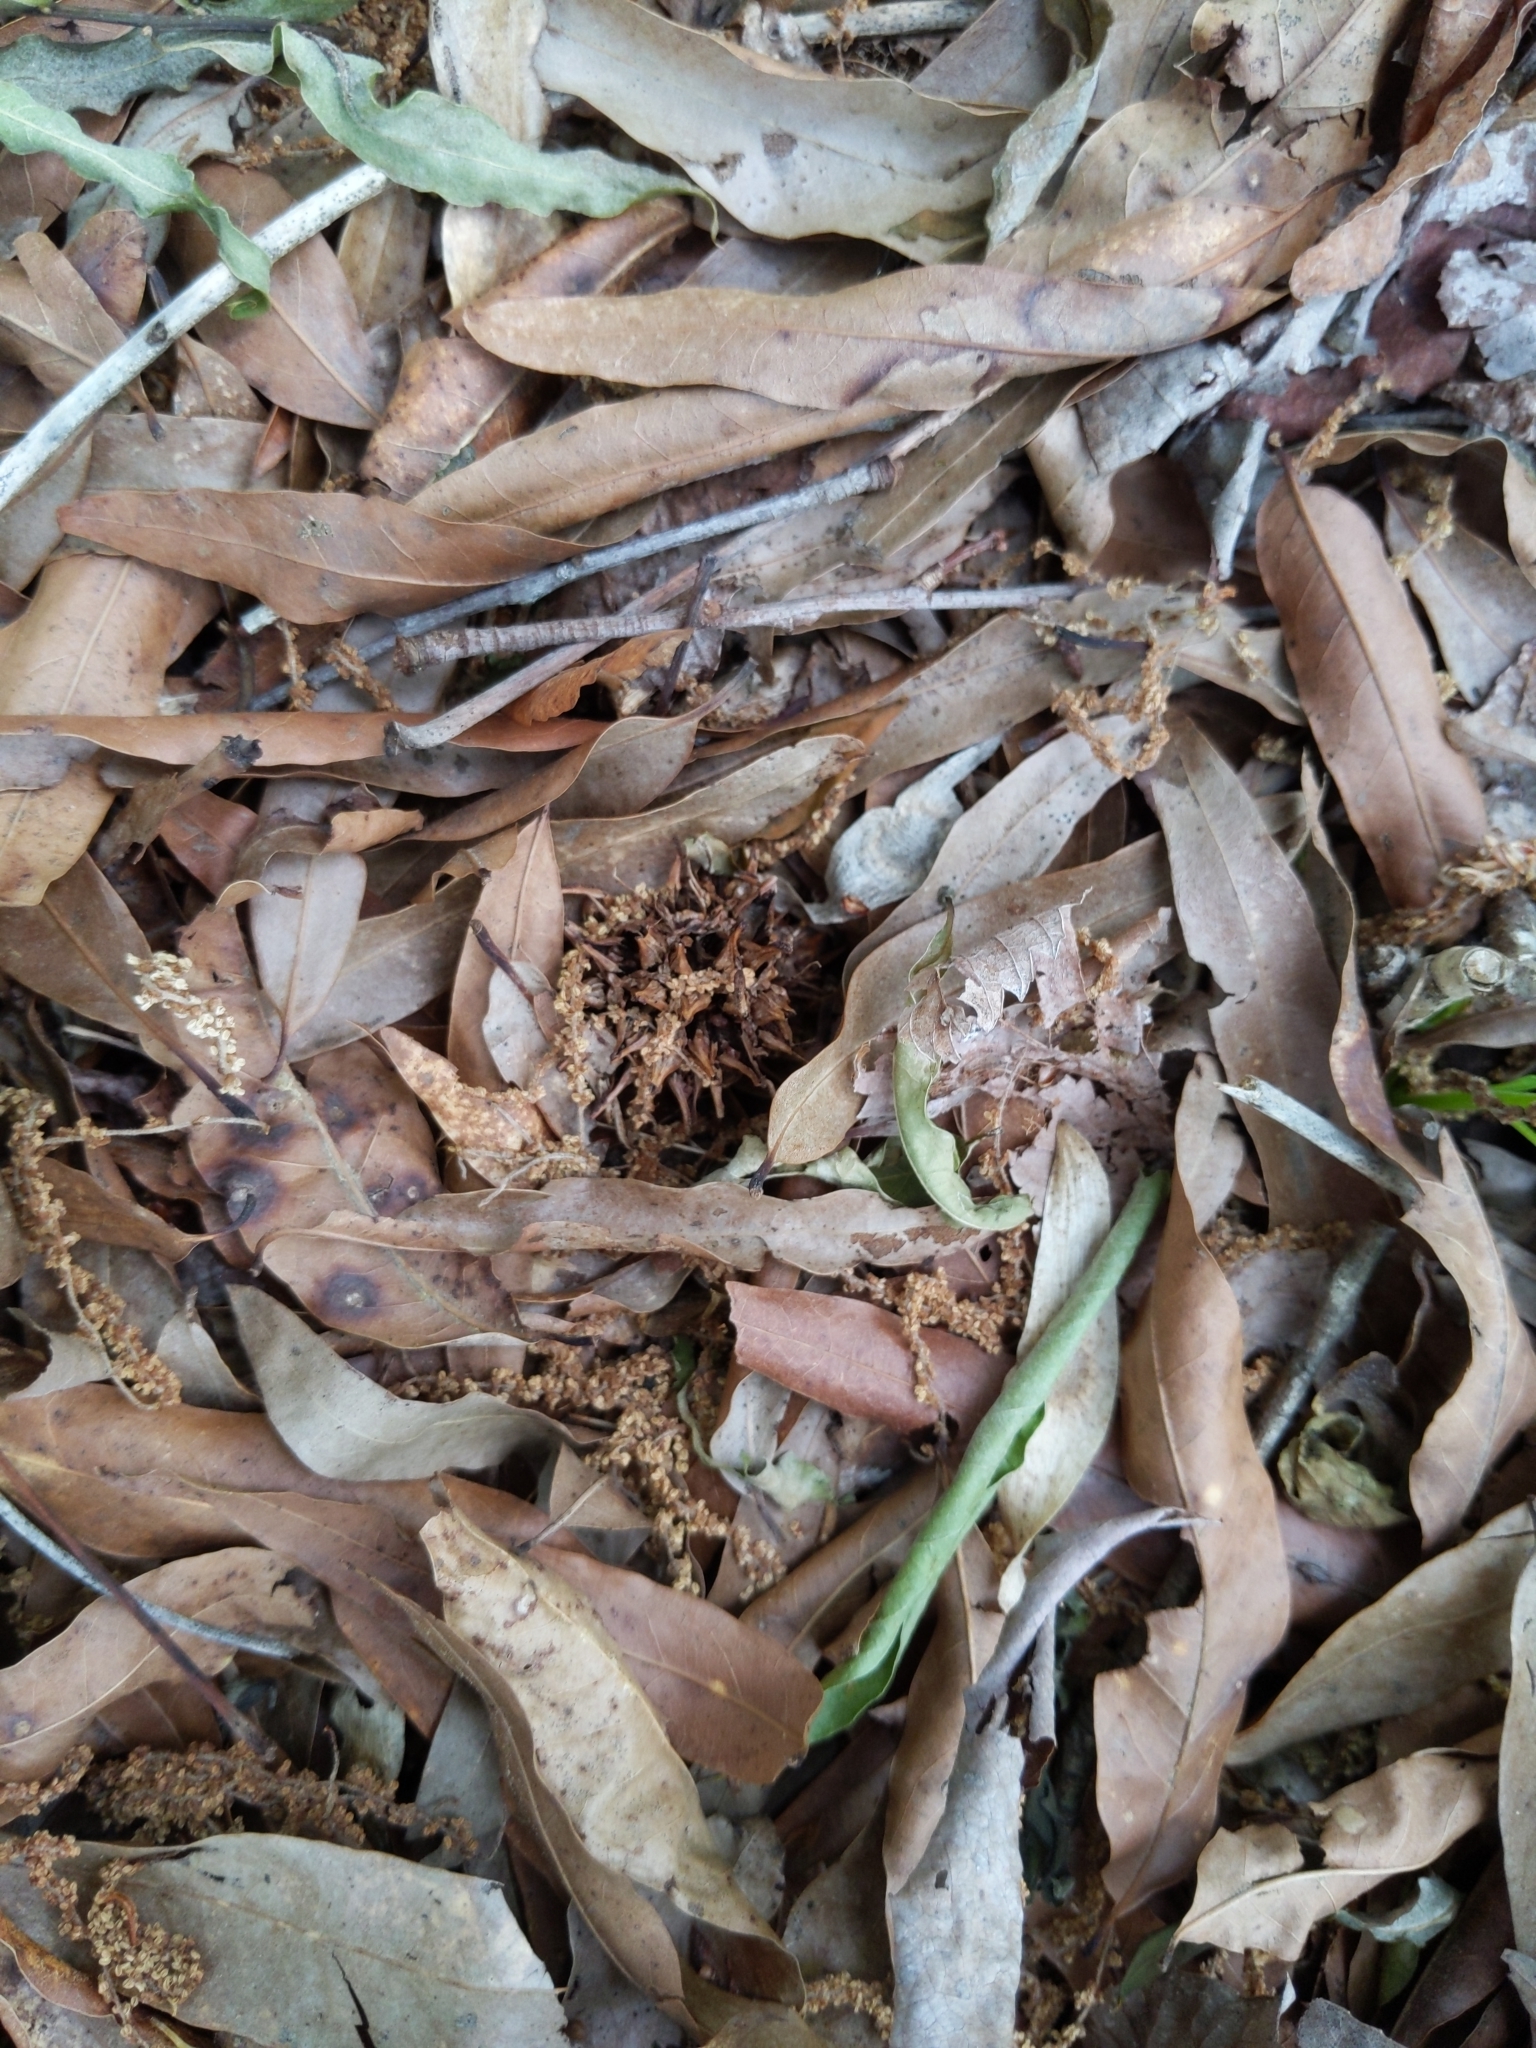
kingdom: Plantae
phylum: Tracheophyta
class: Magnoliopsida
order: Saxifragales
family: Altingiaceae
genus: Liquidambar
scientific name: Liquidambar styraciflua
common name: Sweet gum
